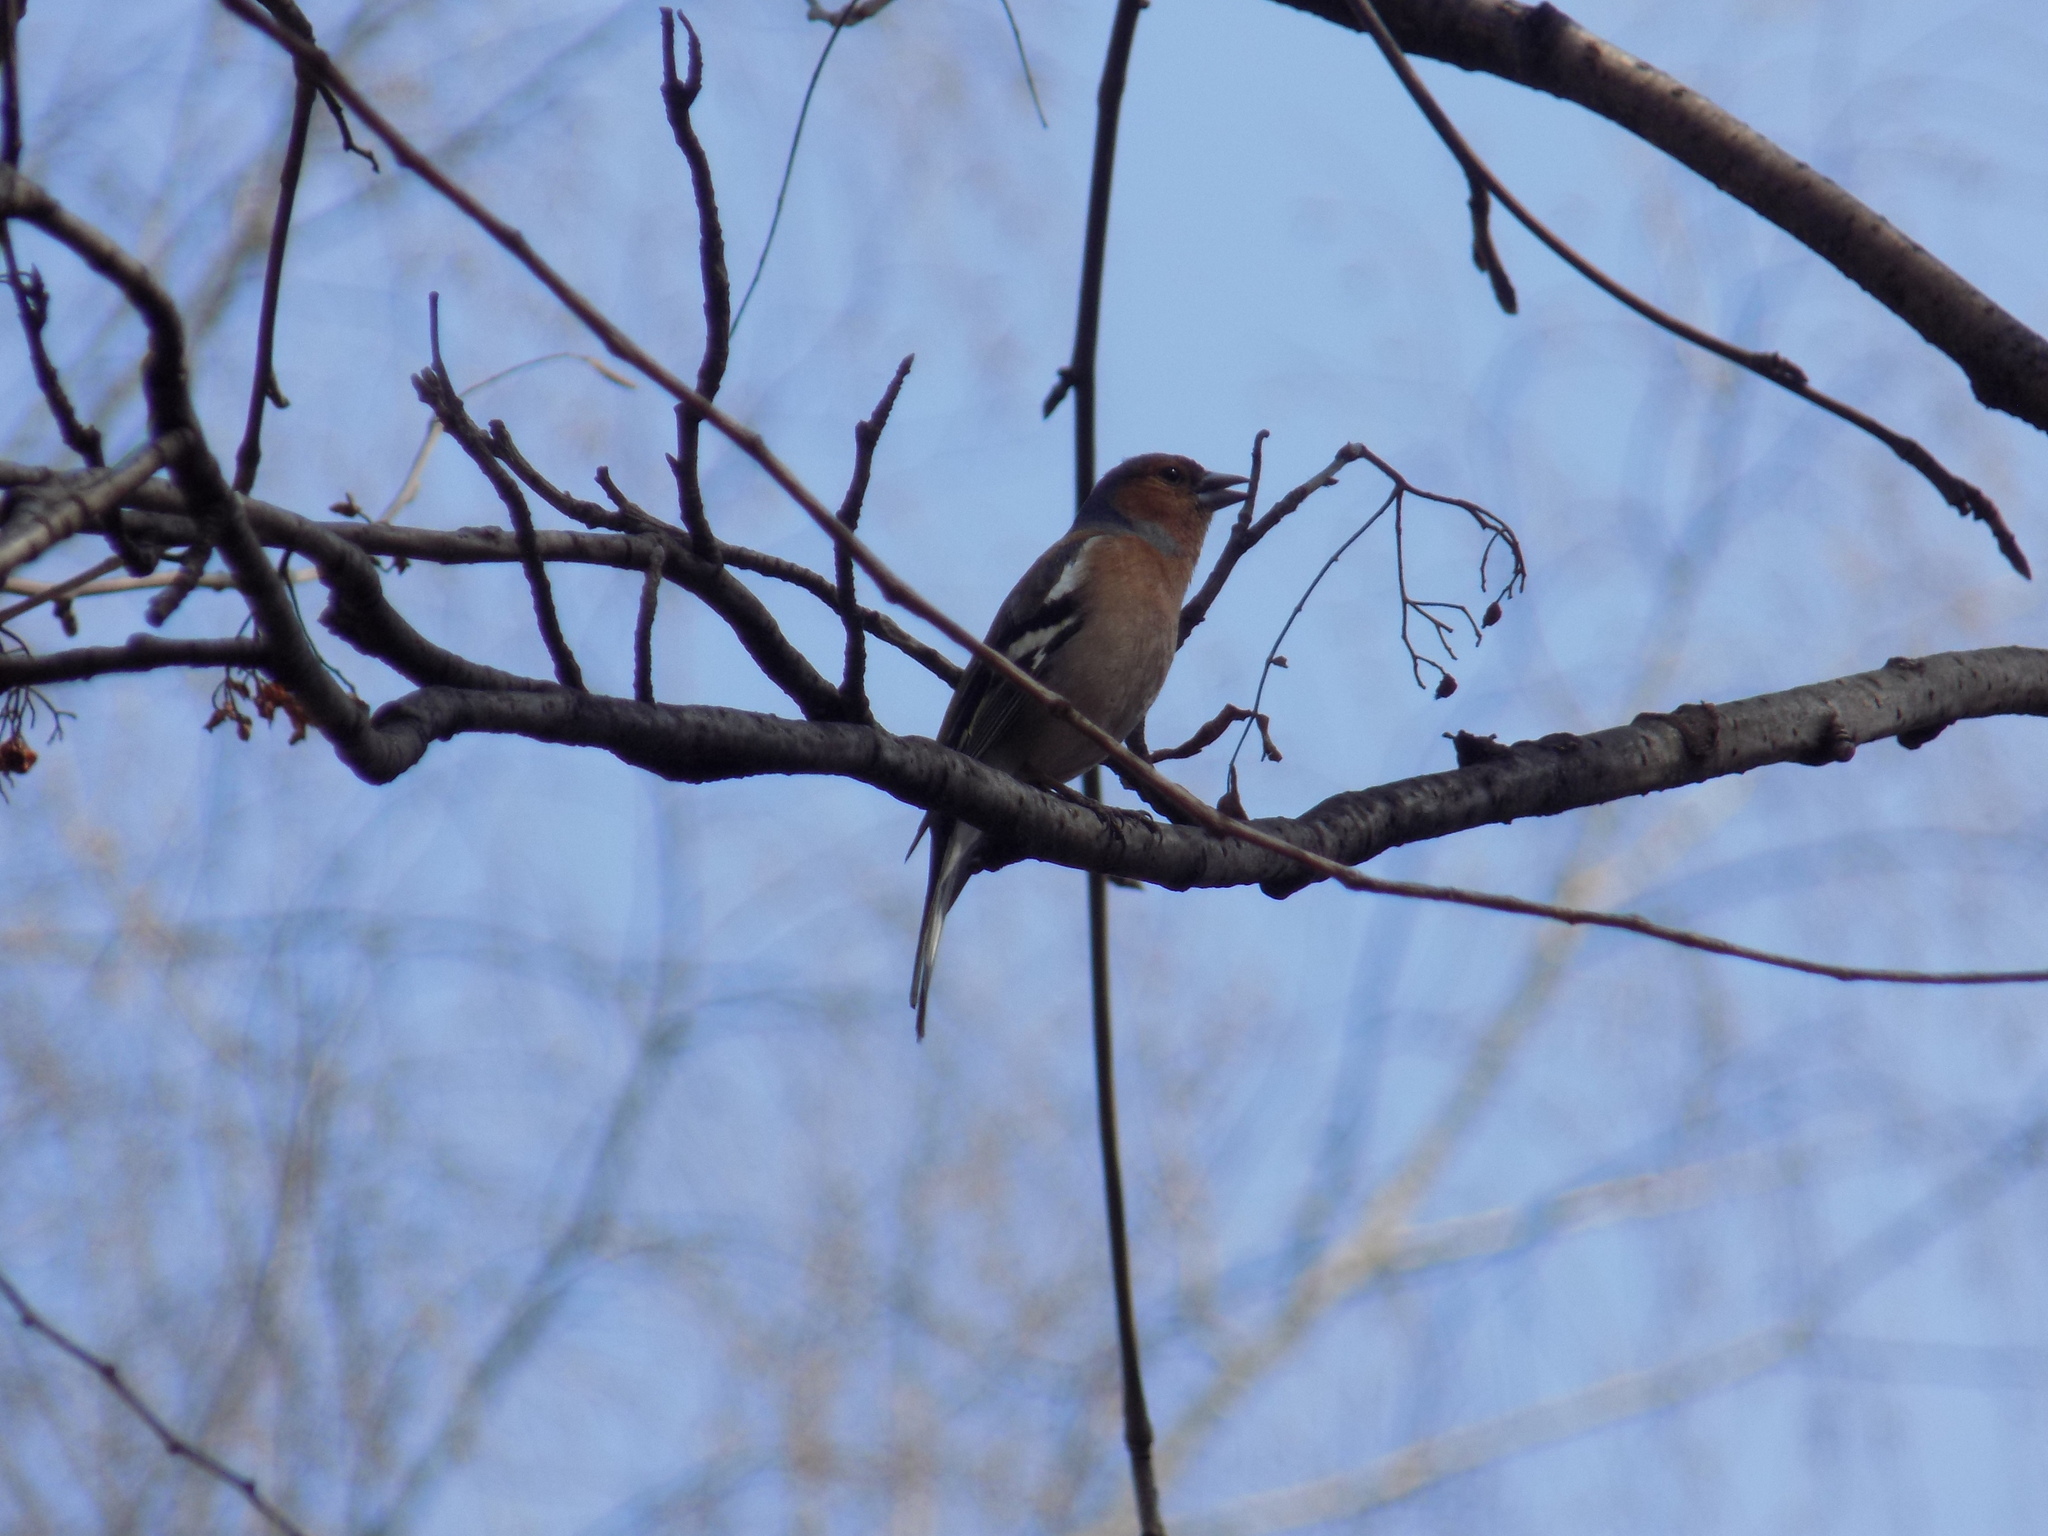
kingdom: Animalia
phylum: Chordata
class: Aves
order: Passeriformes
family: Fringillidae
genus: Fringilla
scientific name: Fringilla coelebs
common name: Common chaffinch
